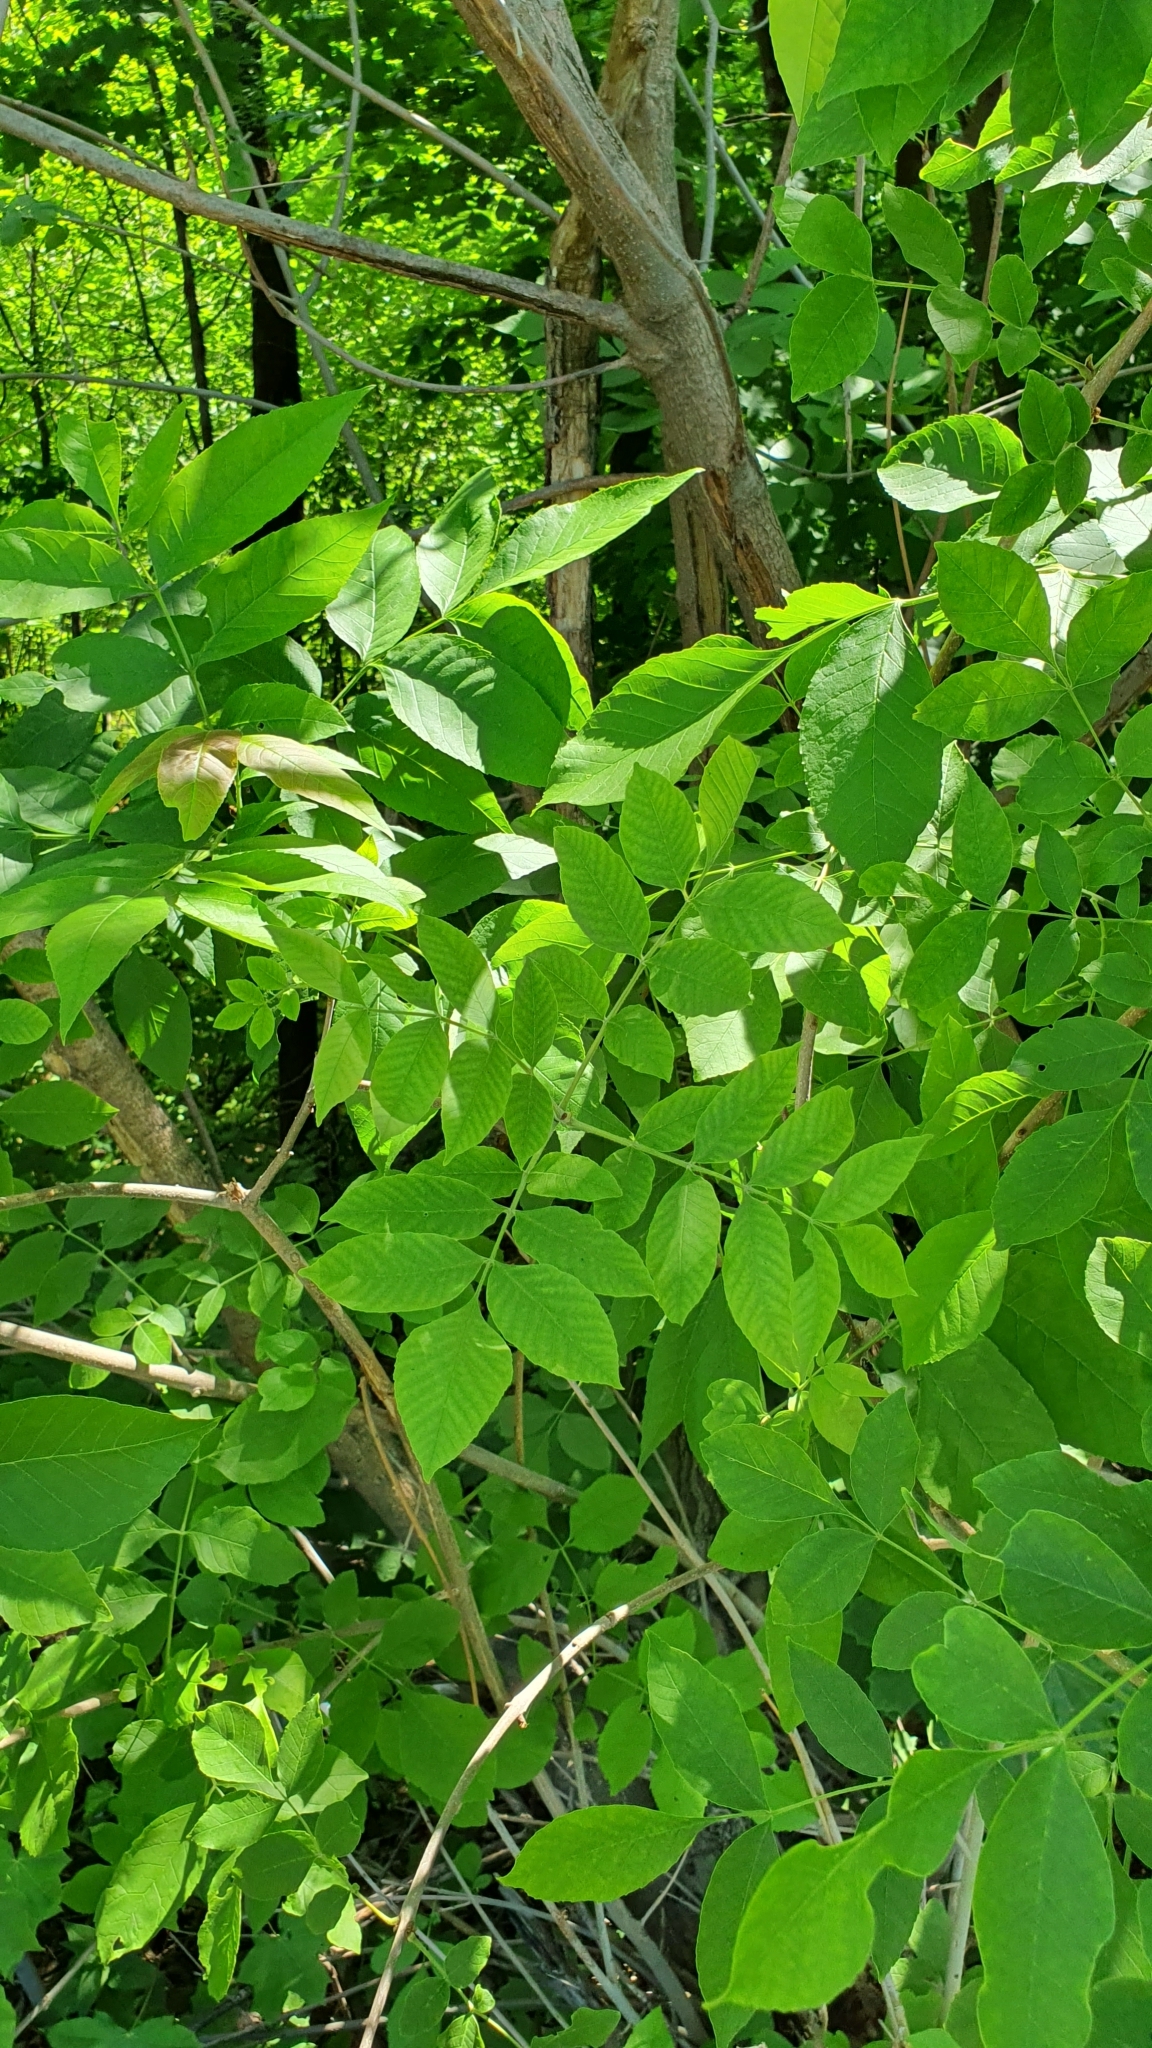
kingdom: Plantae
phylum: Tracheophyta
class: Magnoliopsida
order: Lamiales
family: Oleaceae
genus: Fraxinus
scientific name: Fraxinus pennsylvanica
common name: Green ash
